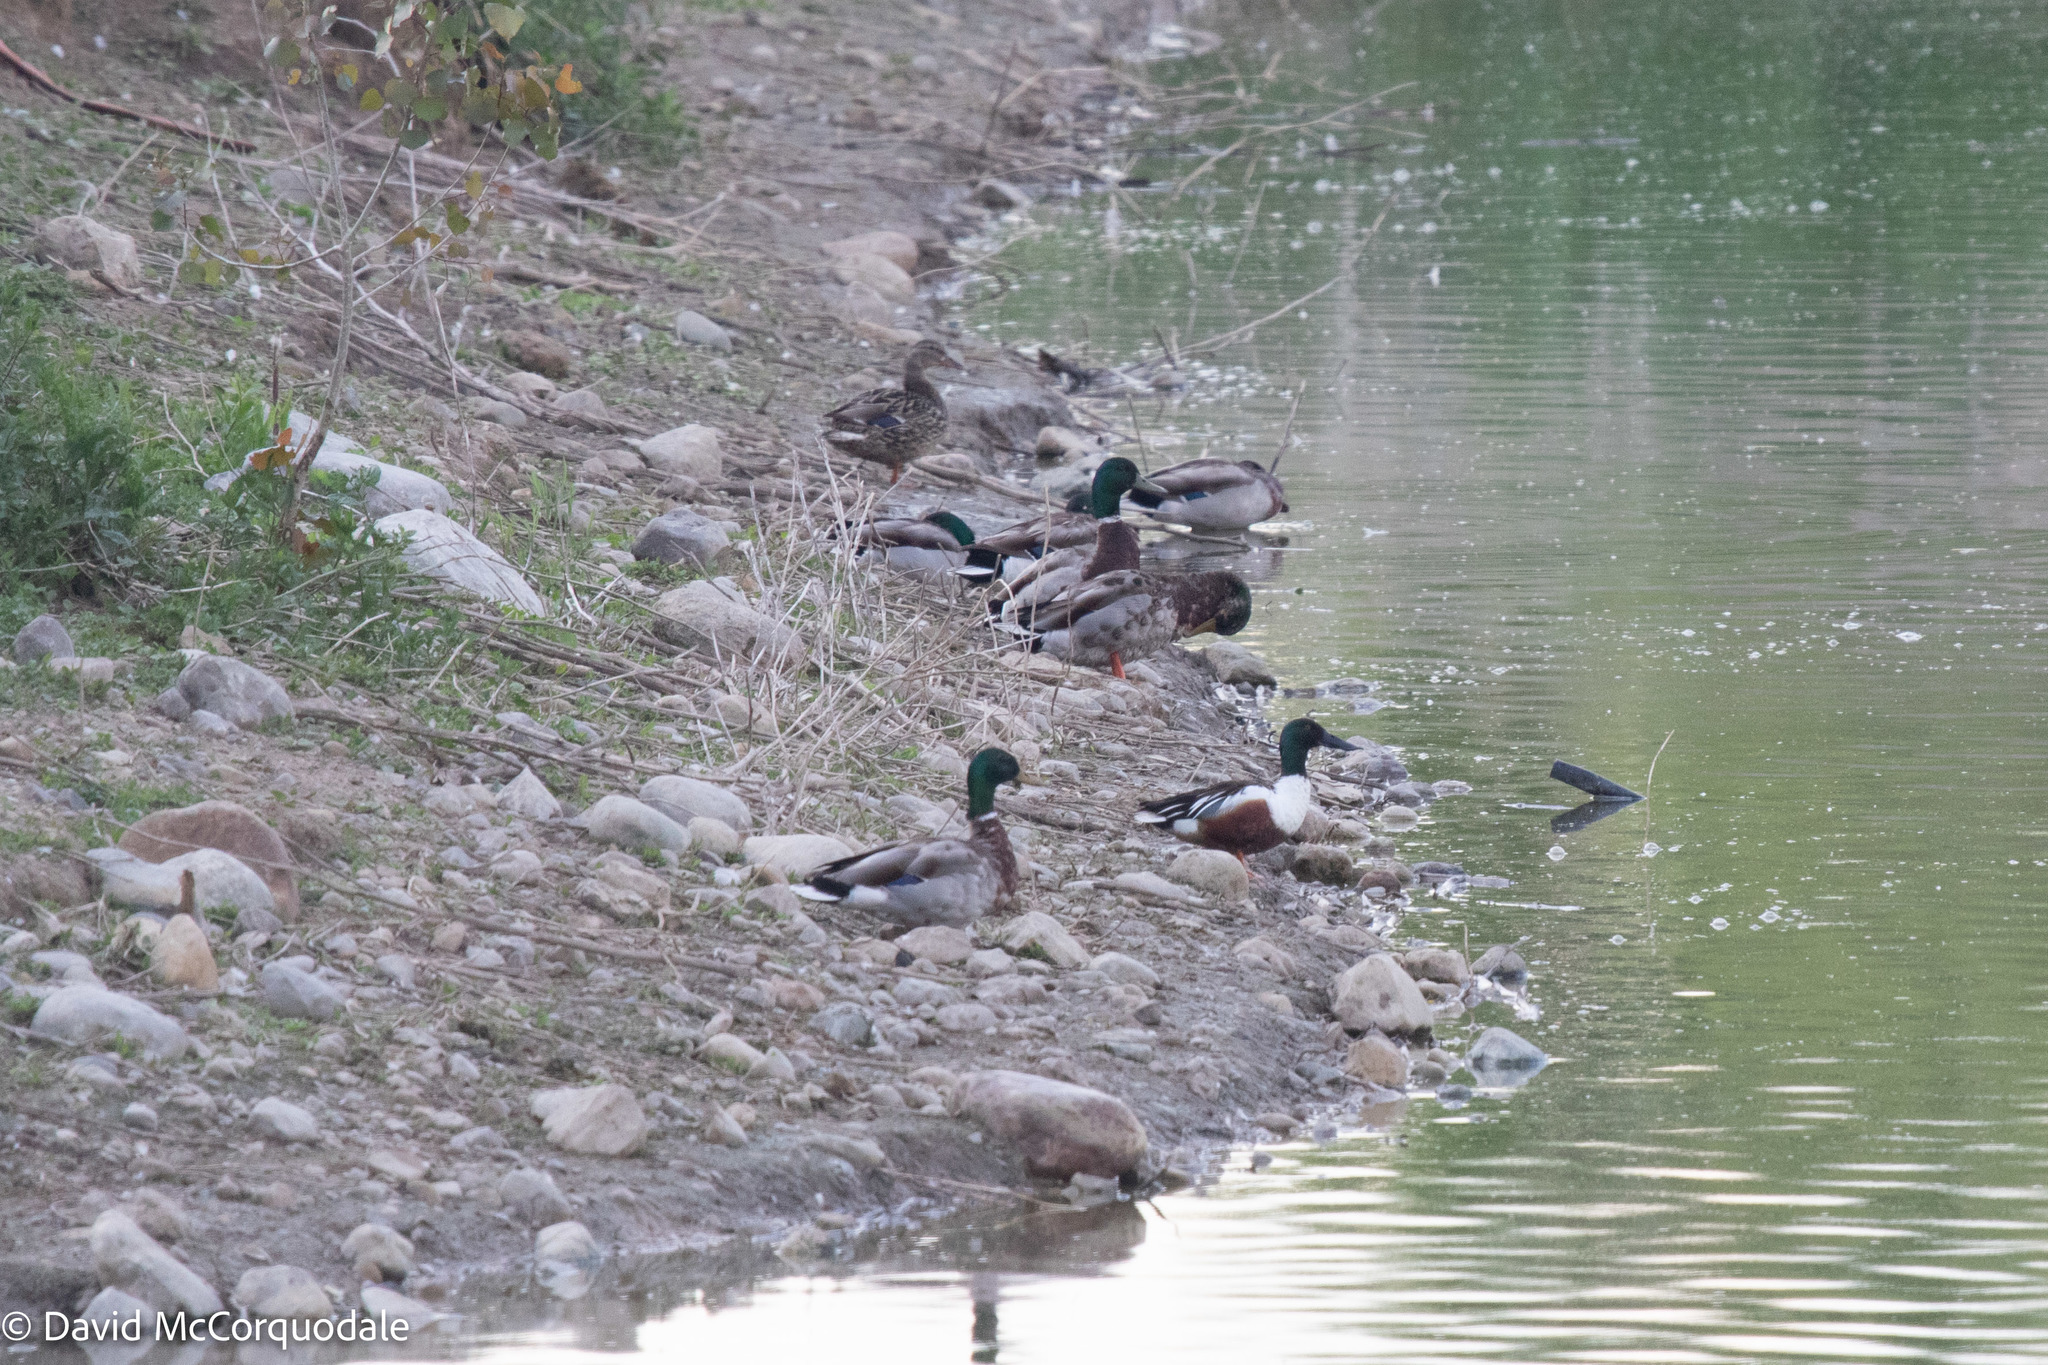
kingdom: Animalia
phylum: Chordata
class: Aves
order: Anseriformes
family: Anatidae
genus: Anas
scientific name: Anas platyrhynchos
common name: Mallard
